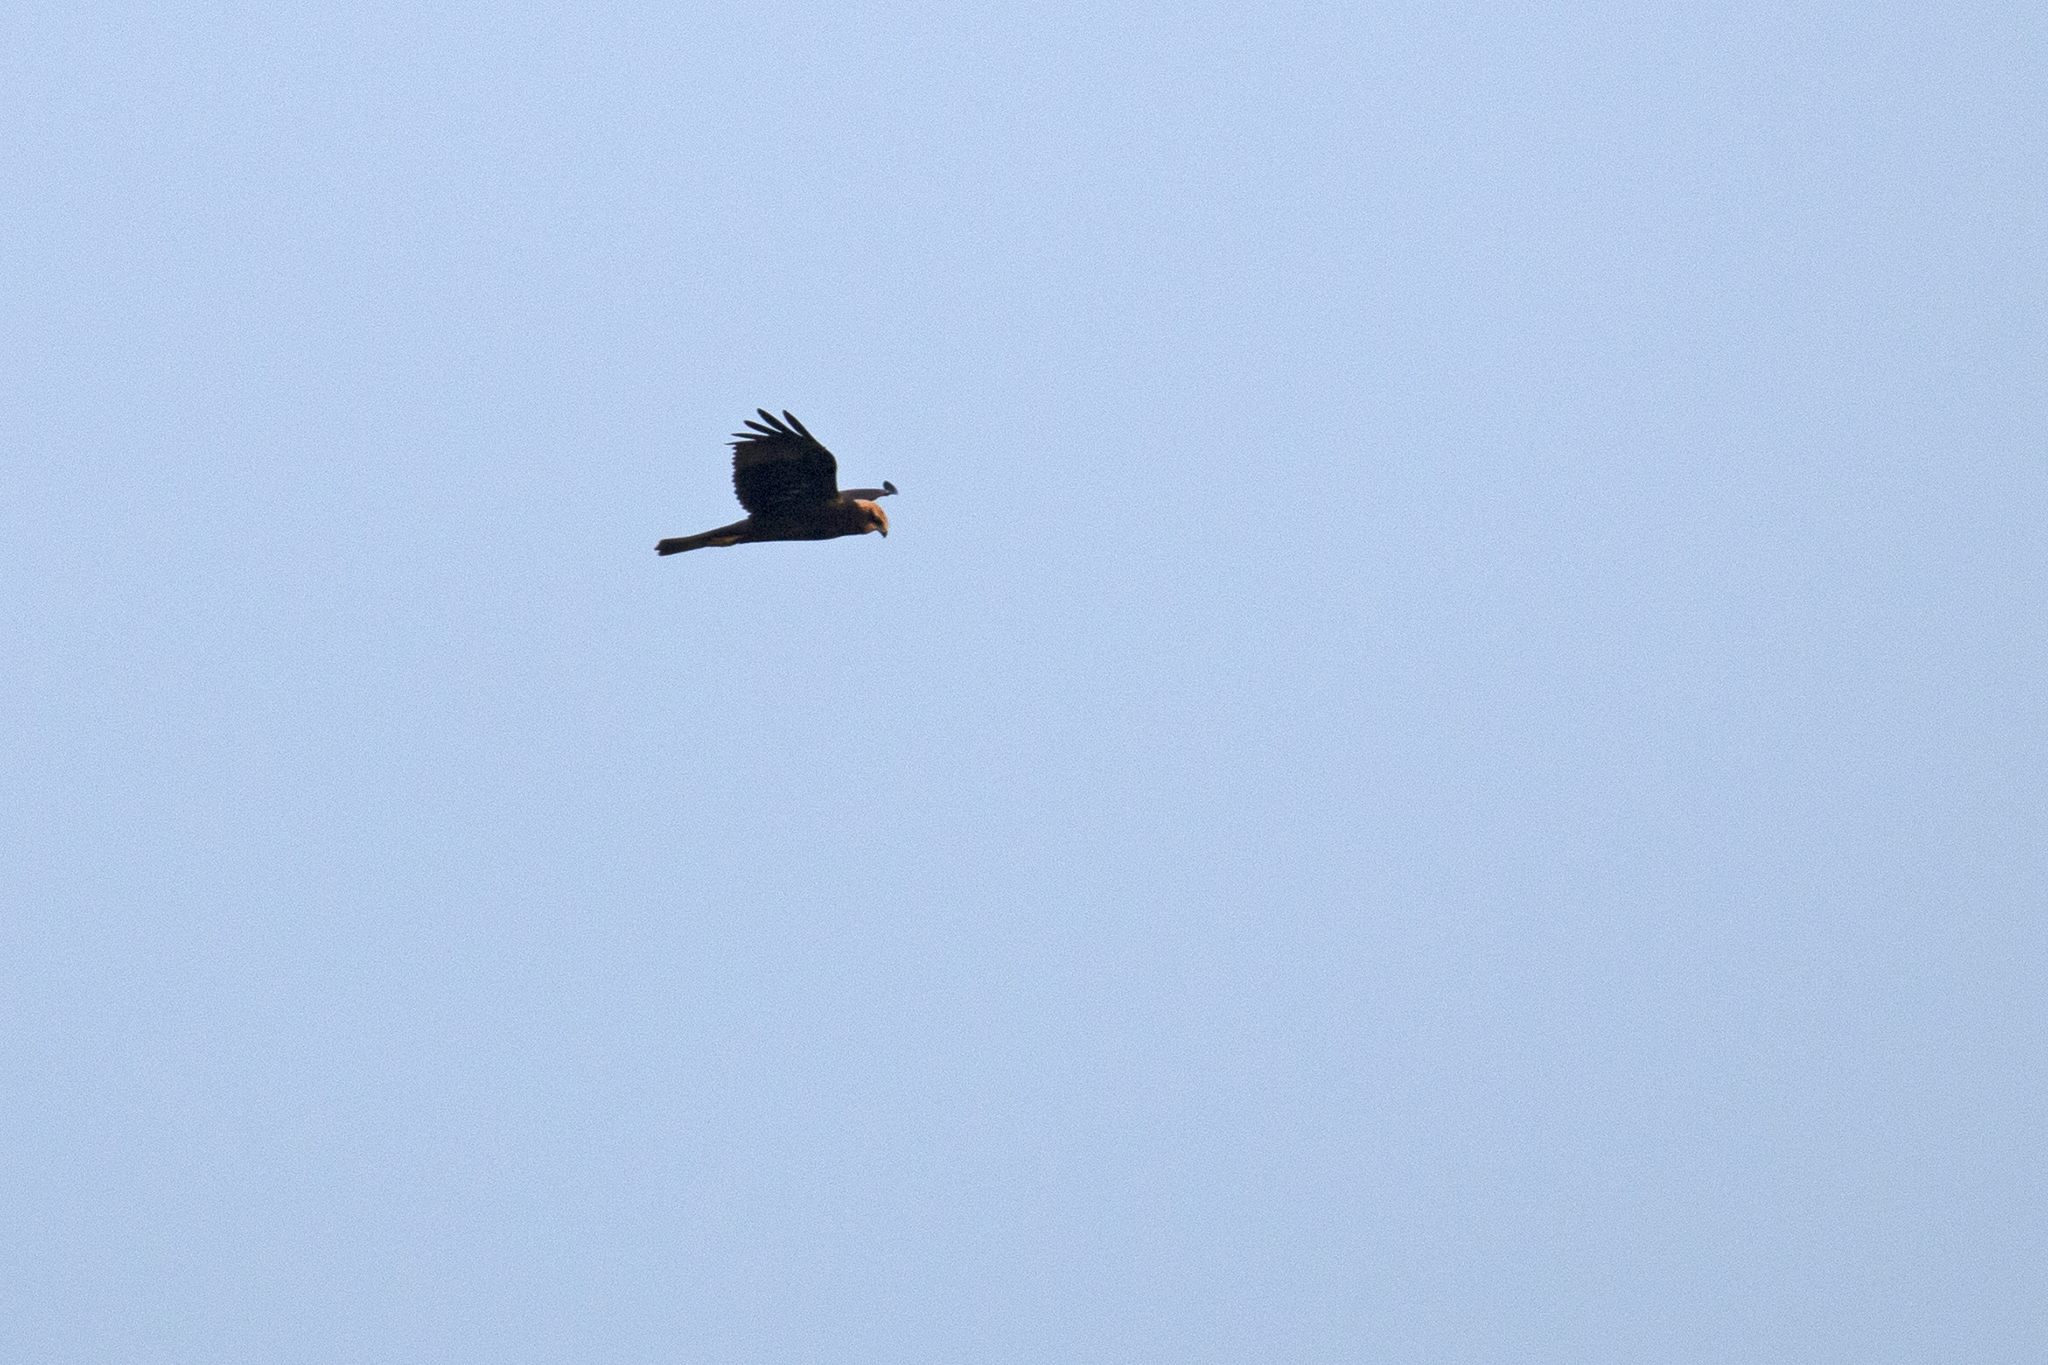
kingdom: Animalia
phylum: Chordata
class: Aves
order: Accipitriformes
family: Accipitridae
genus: Circus
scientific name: Circus aeruginosus
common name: Western marsh harrier
